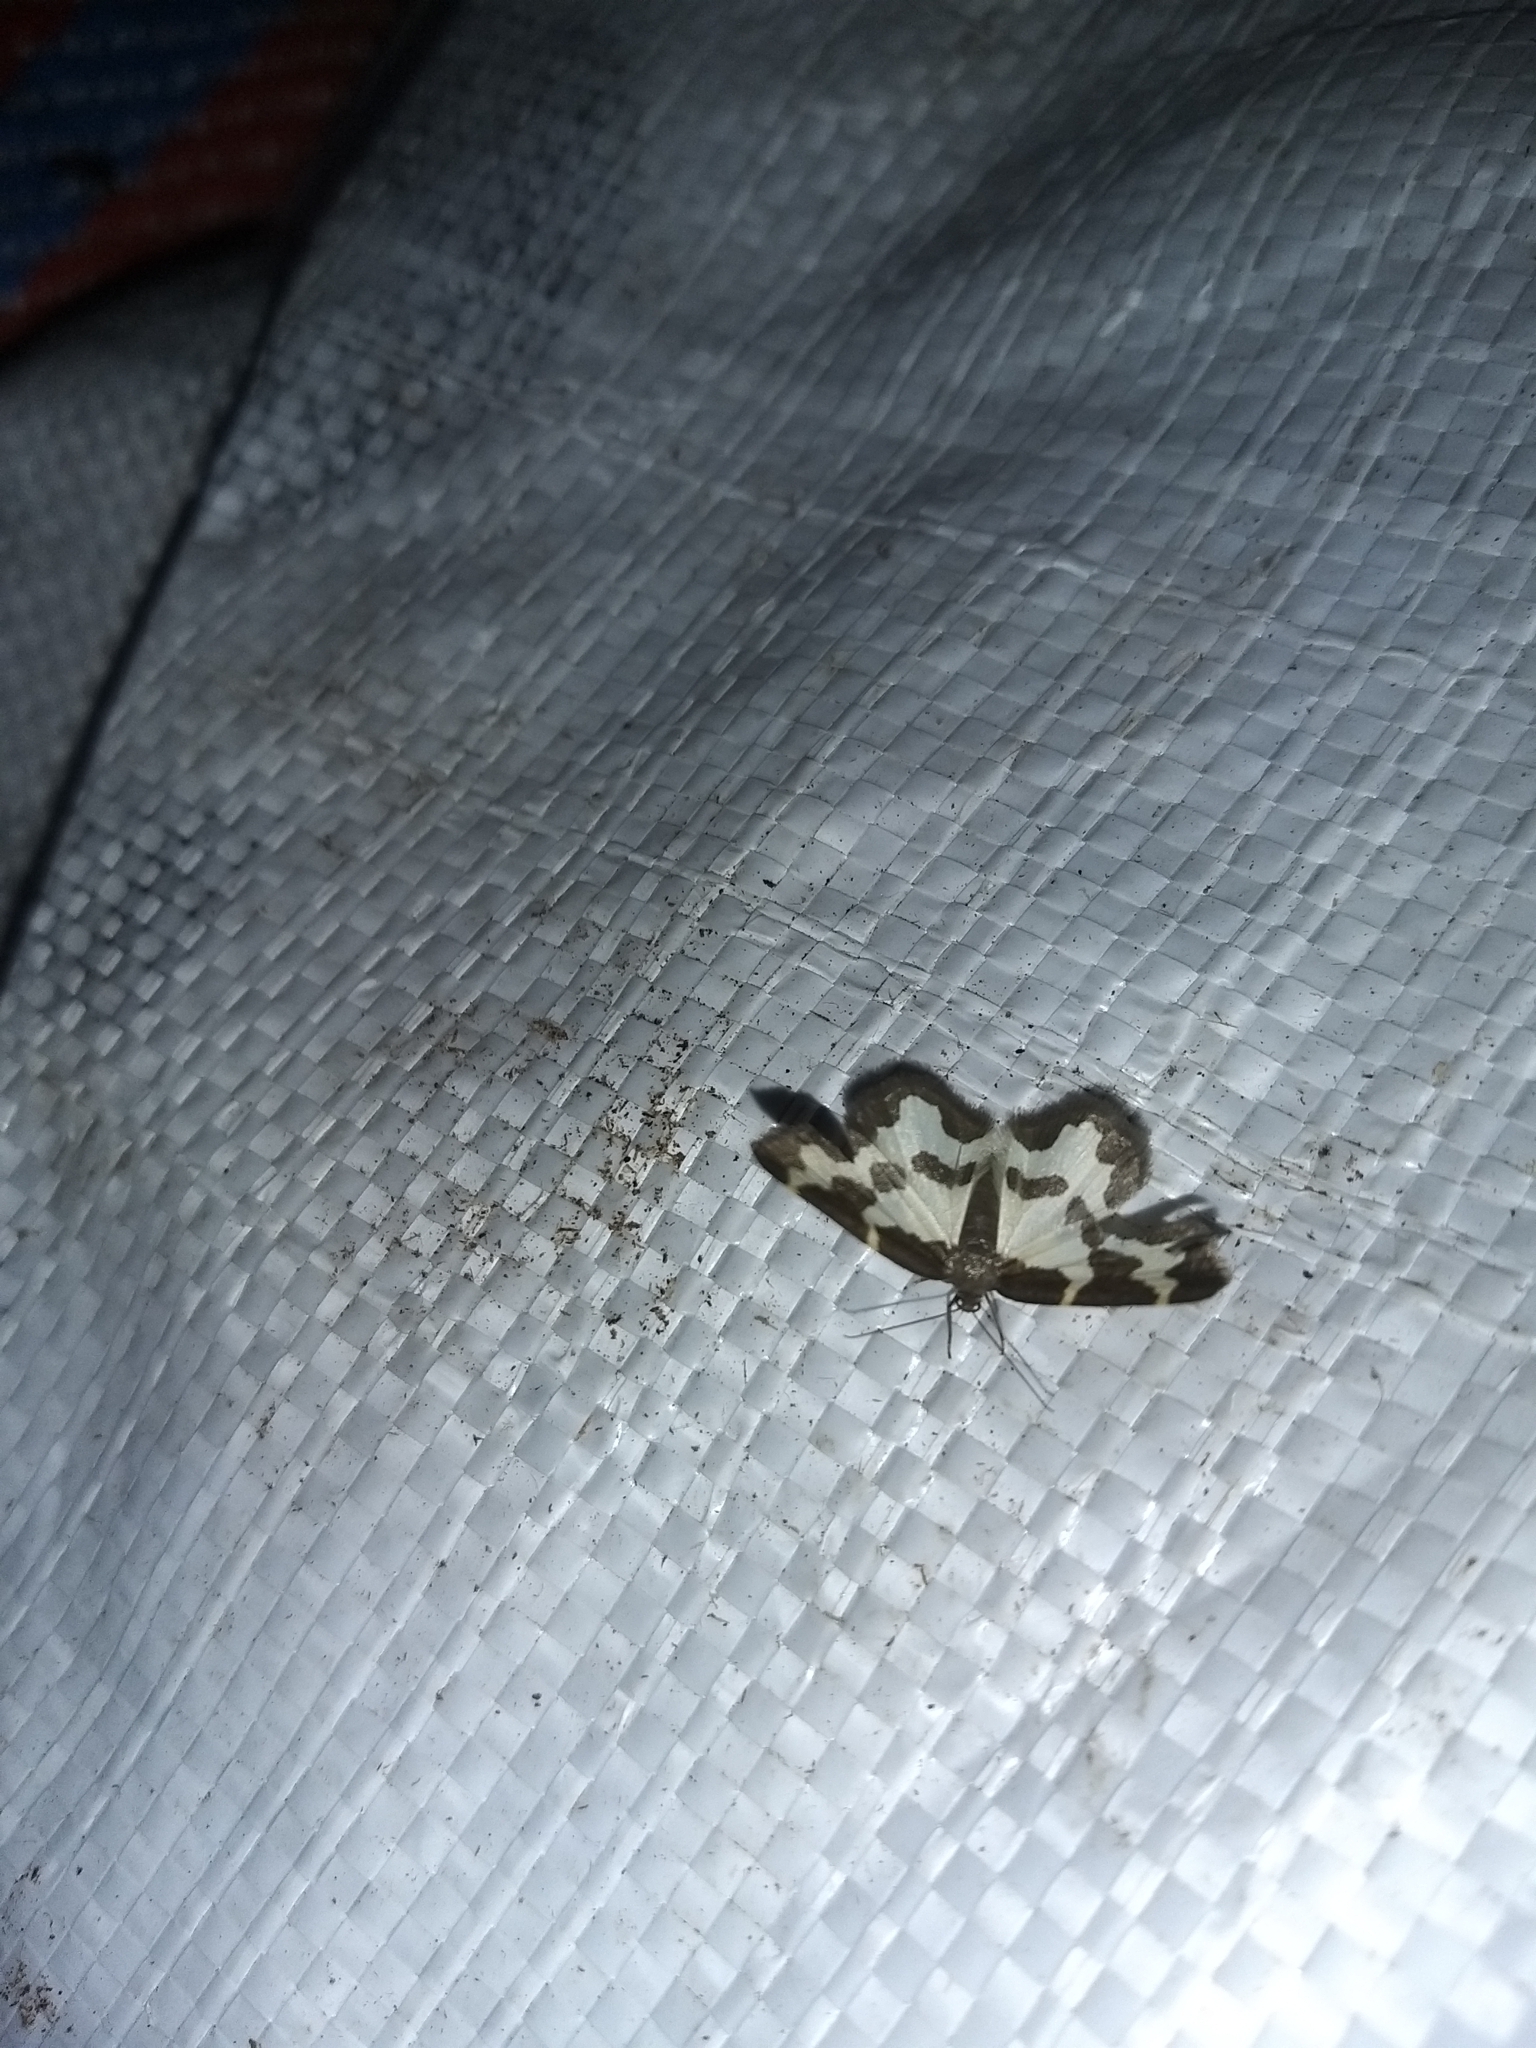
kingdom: Animalia
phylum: Arthropoda
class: Insecta
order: Lepidoptera
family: Geometridae
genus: Lomaspilis
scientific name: Lomaspilis marginata
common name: Clouded border
